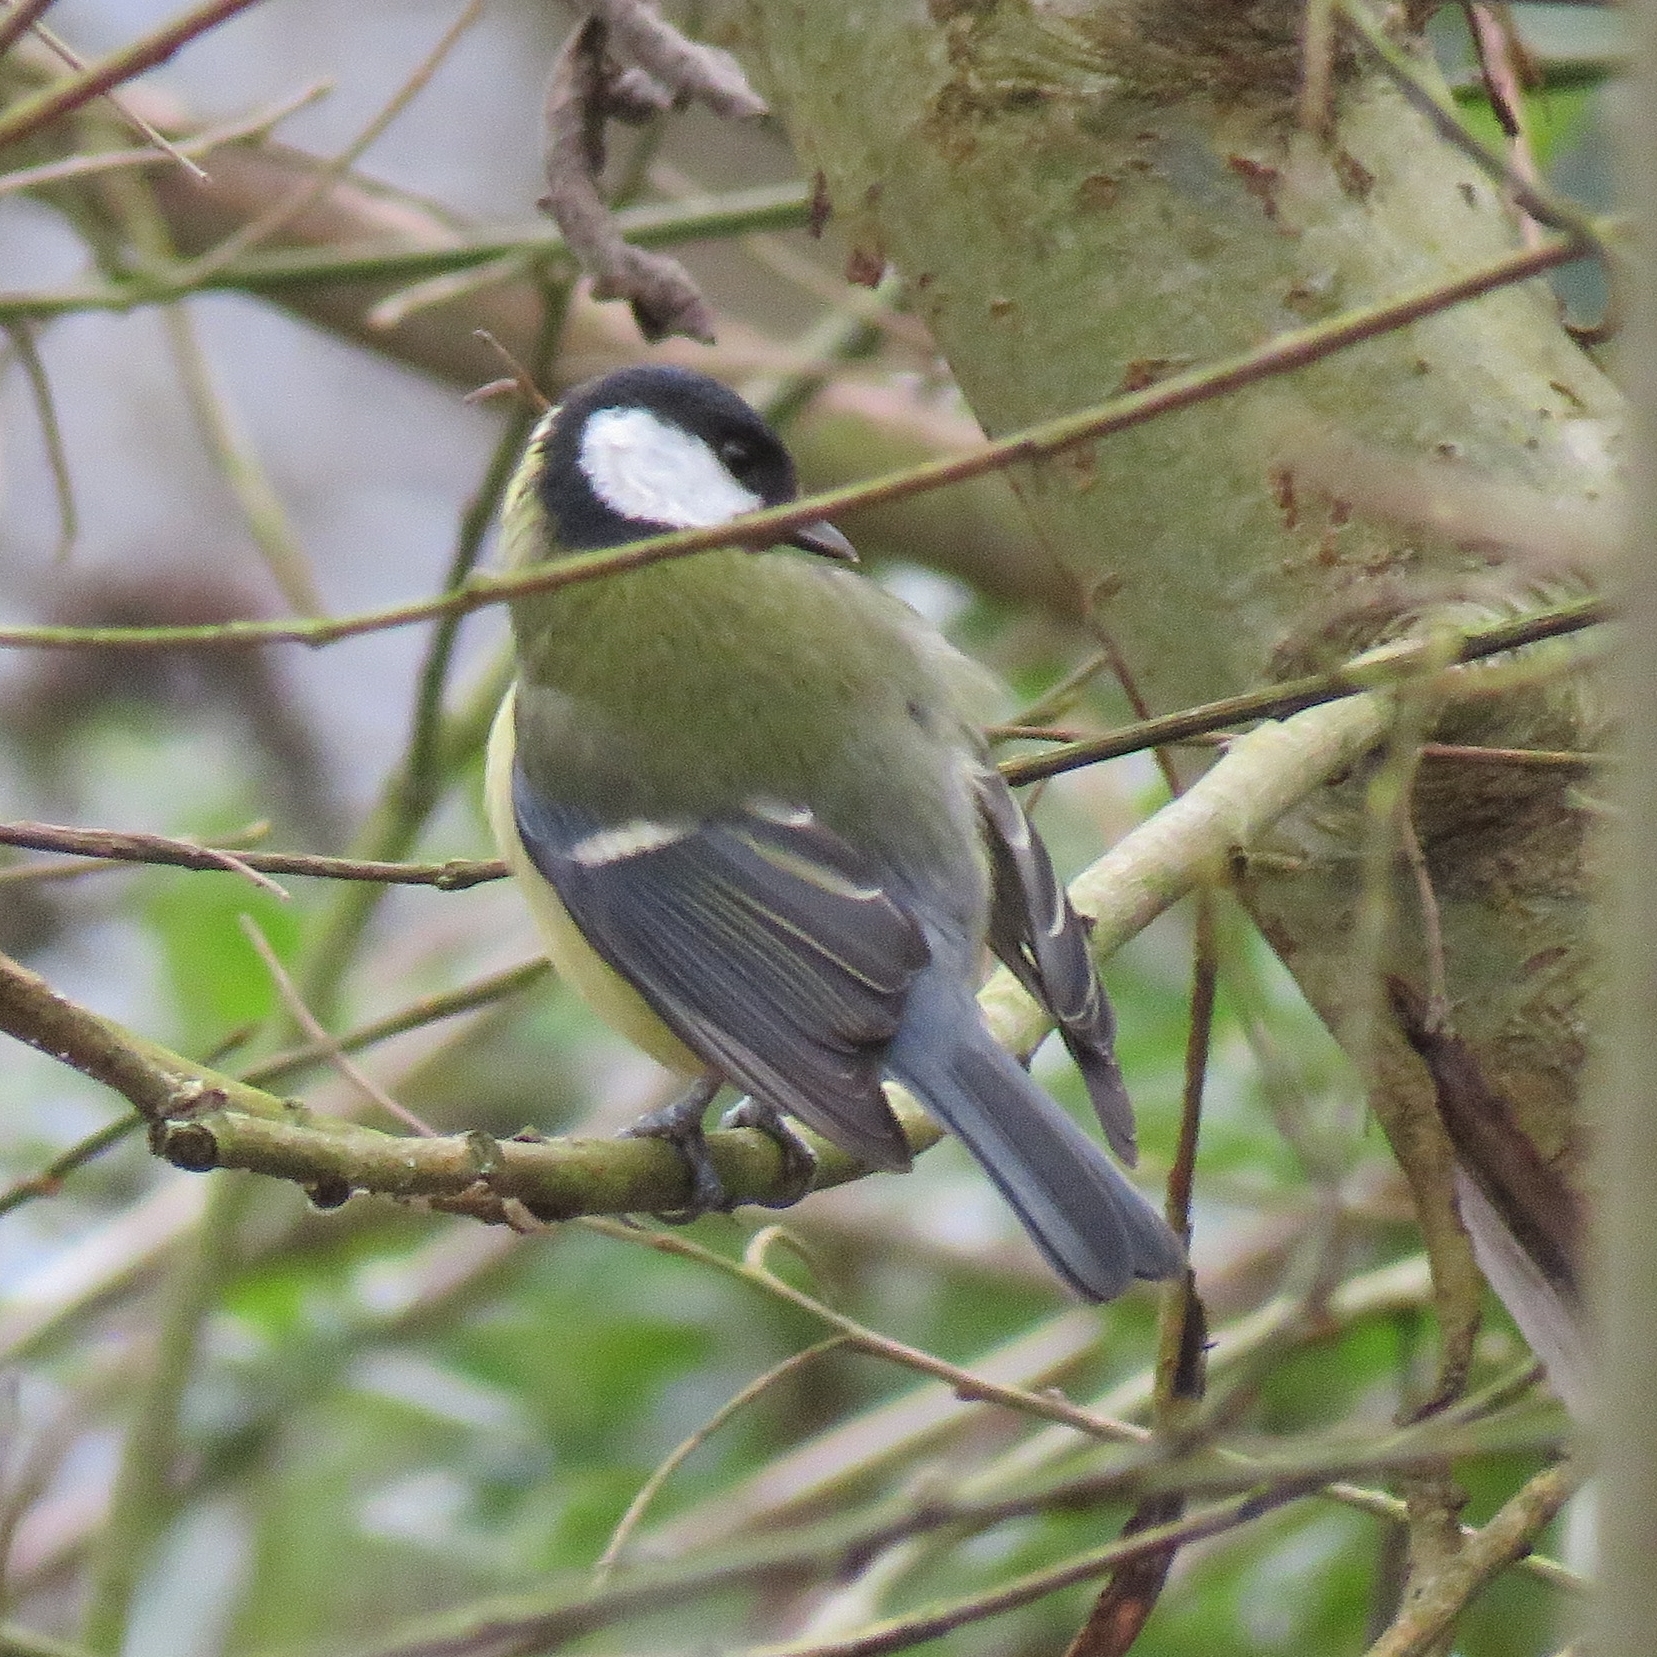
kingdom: Animalia
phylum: Chordata
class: Aves
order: Passeriformes
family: Paridae
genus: Parus
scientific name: Parus major
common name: Great tit
